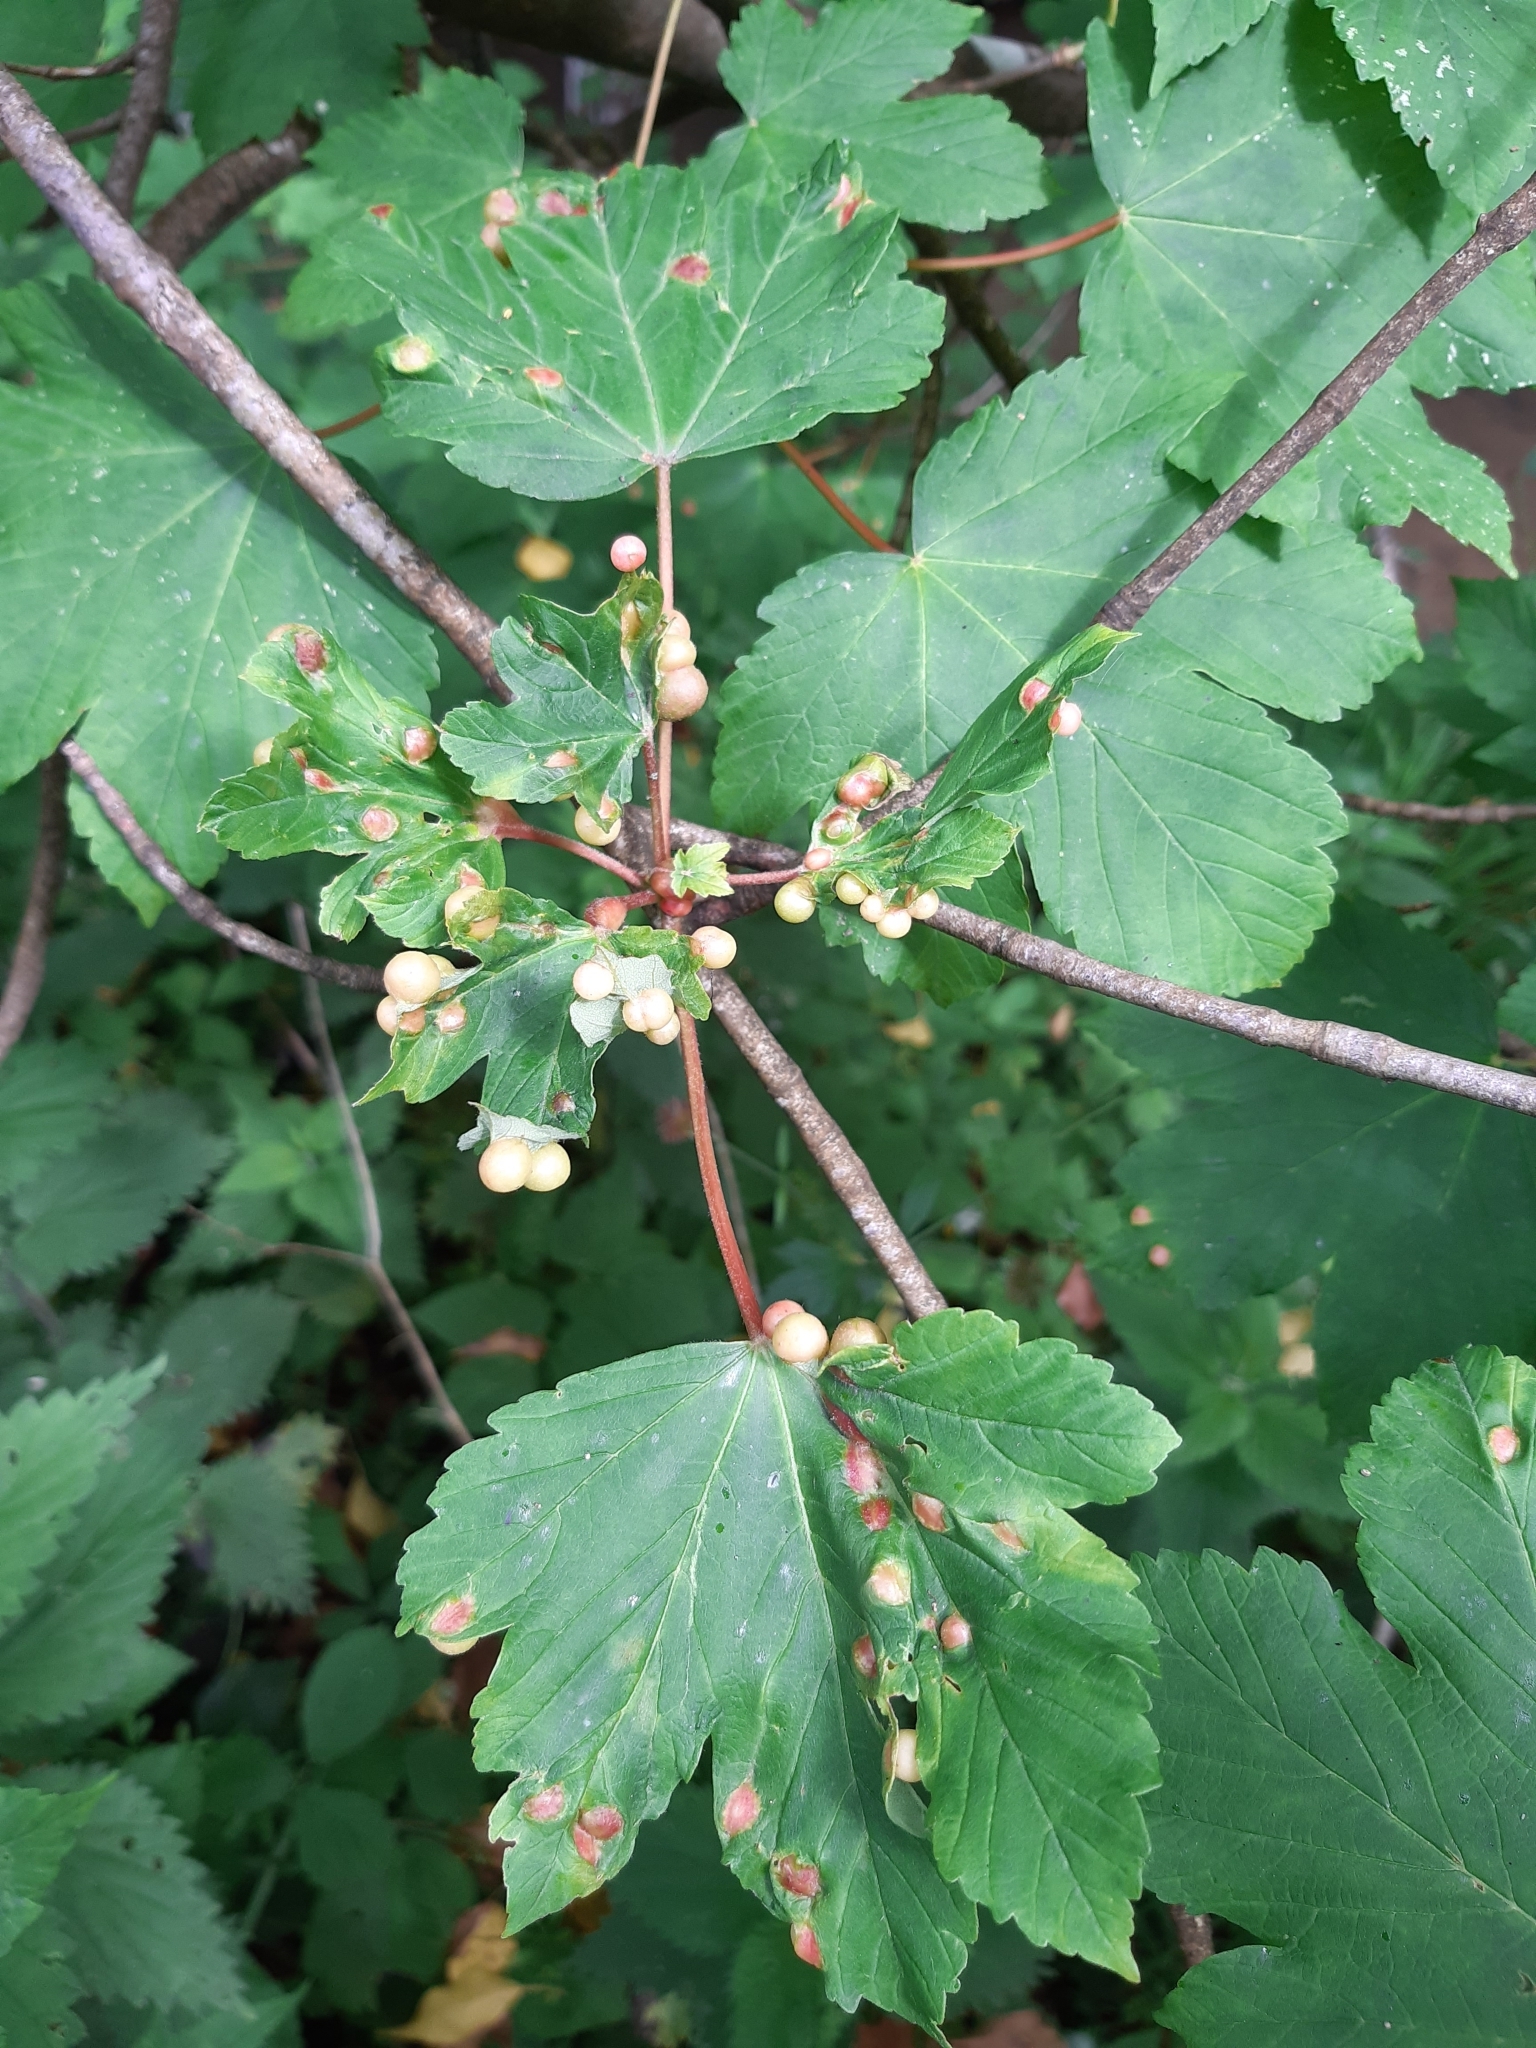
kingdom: Animalia
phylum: Arthropoda
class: Insecta
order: Hymenoptera
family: Cynipidae
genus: Pediaspis
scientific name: Pediaspis aceris
